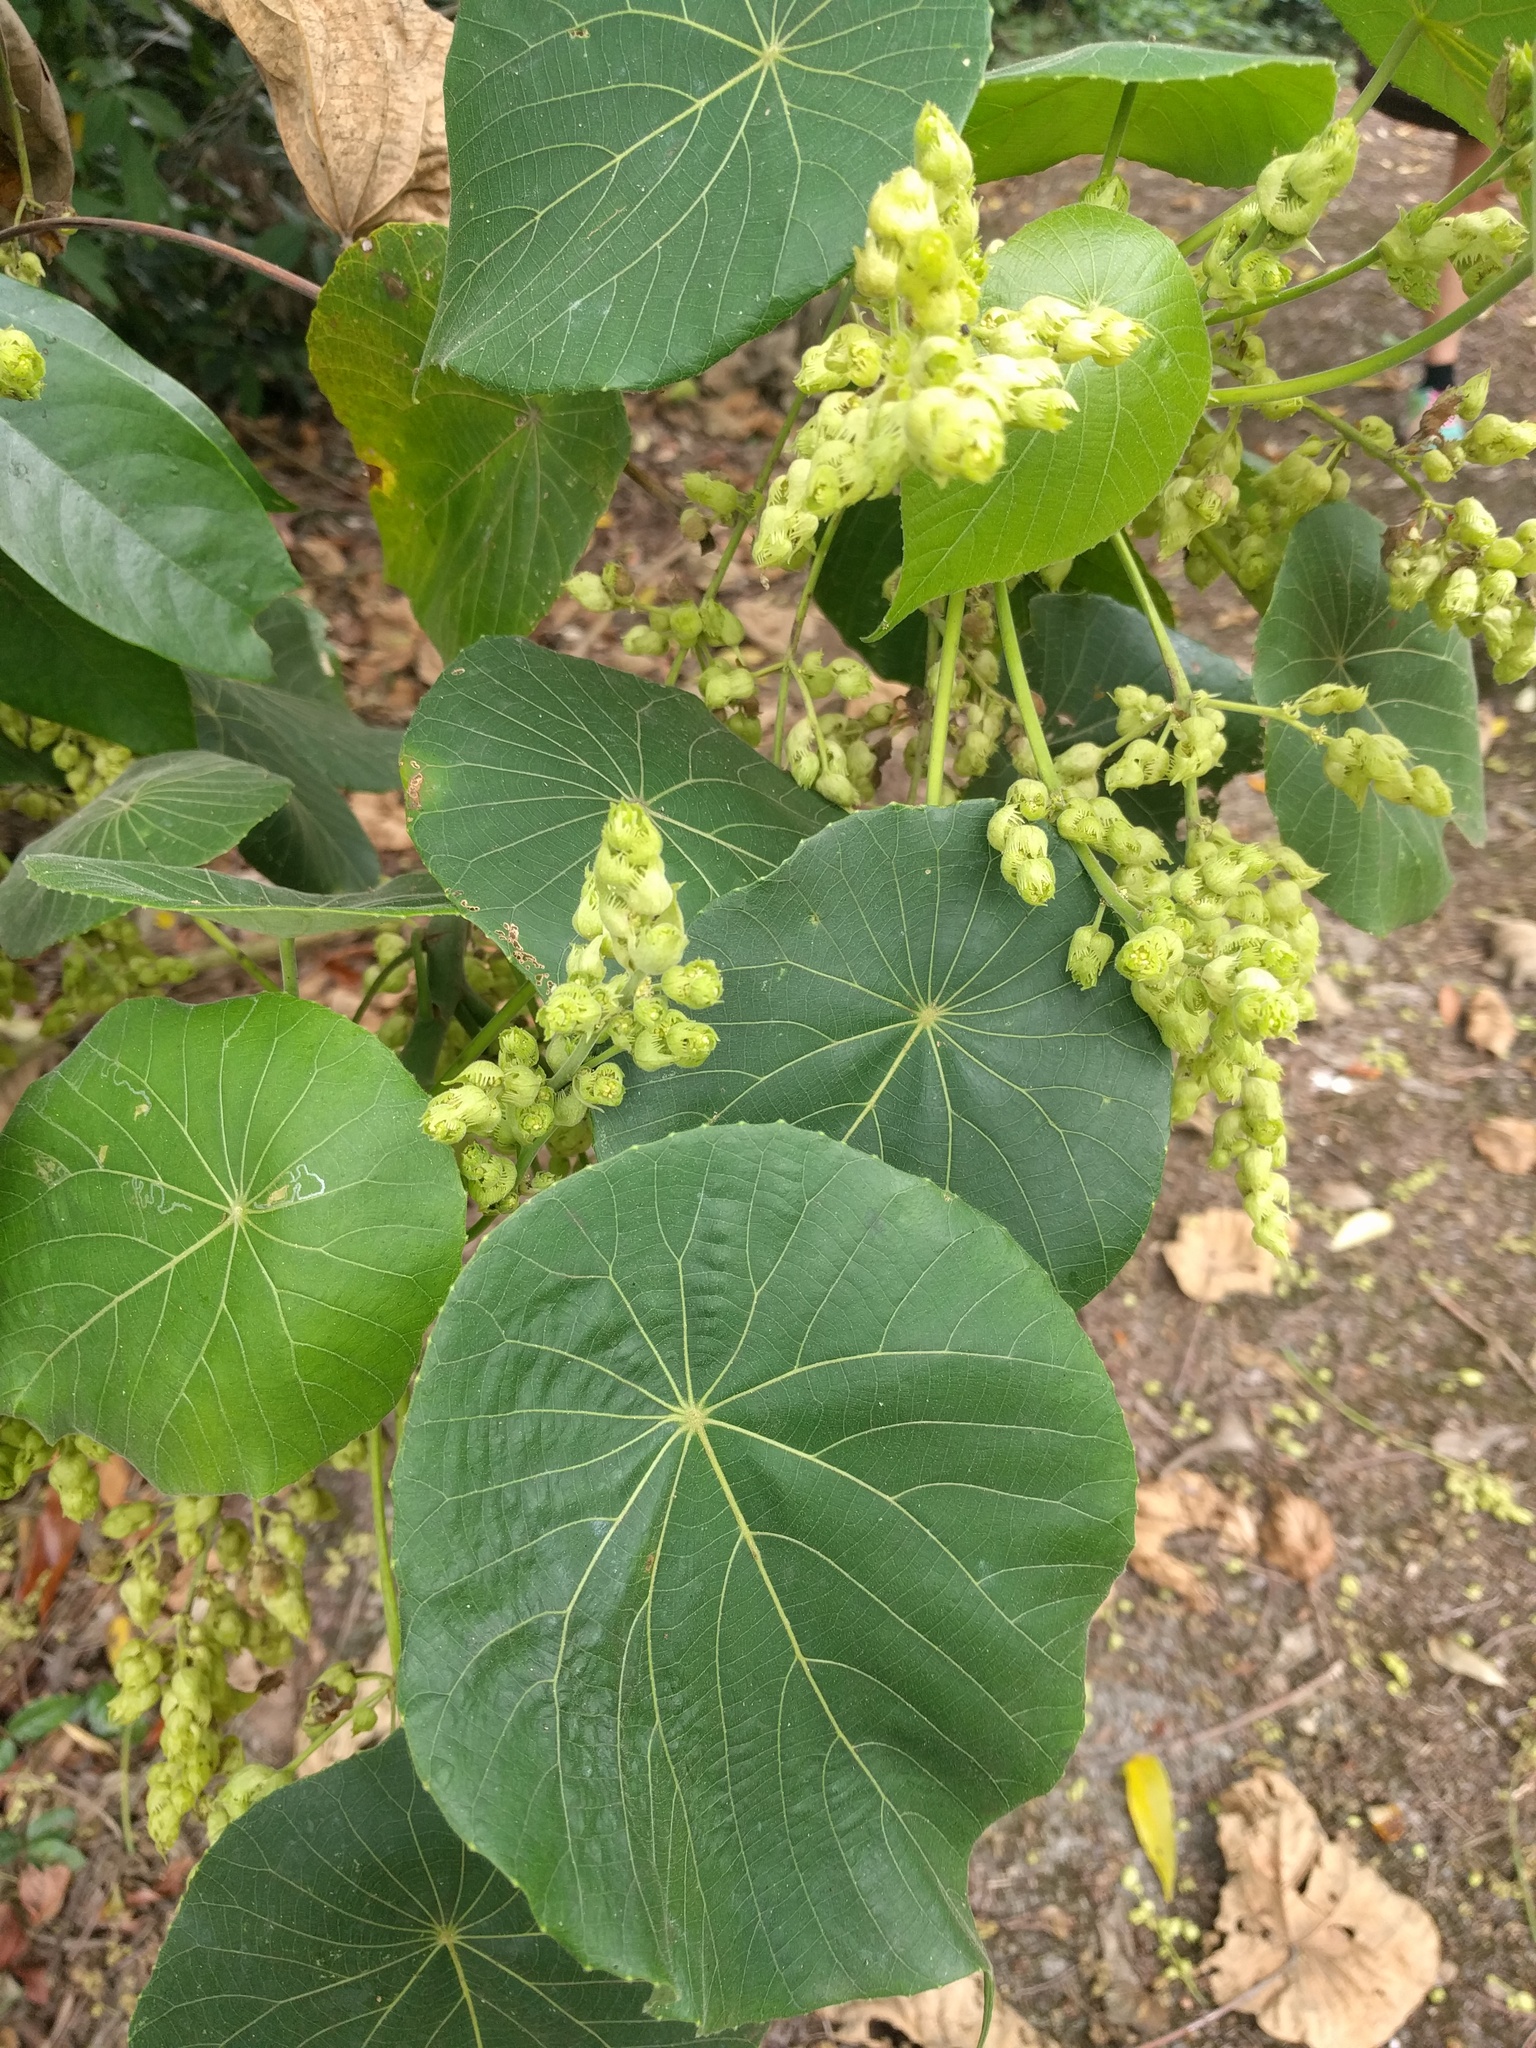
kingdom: Plantae
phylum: Tracheophyta
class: Magnoliopsida
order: Malpighiales
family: Euphorbiaceae
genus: Macaranga
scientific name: Macaranga tanarius
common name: Parasol leaf tree
